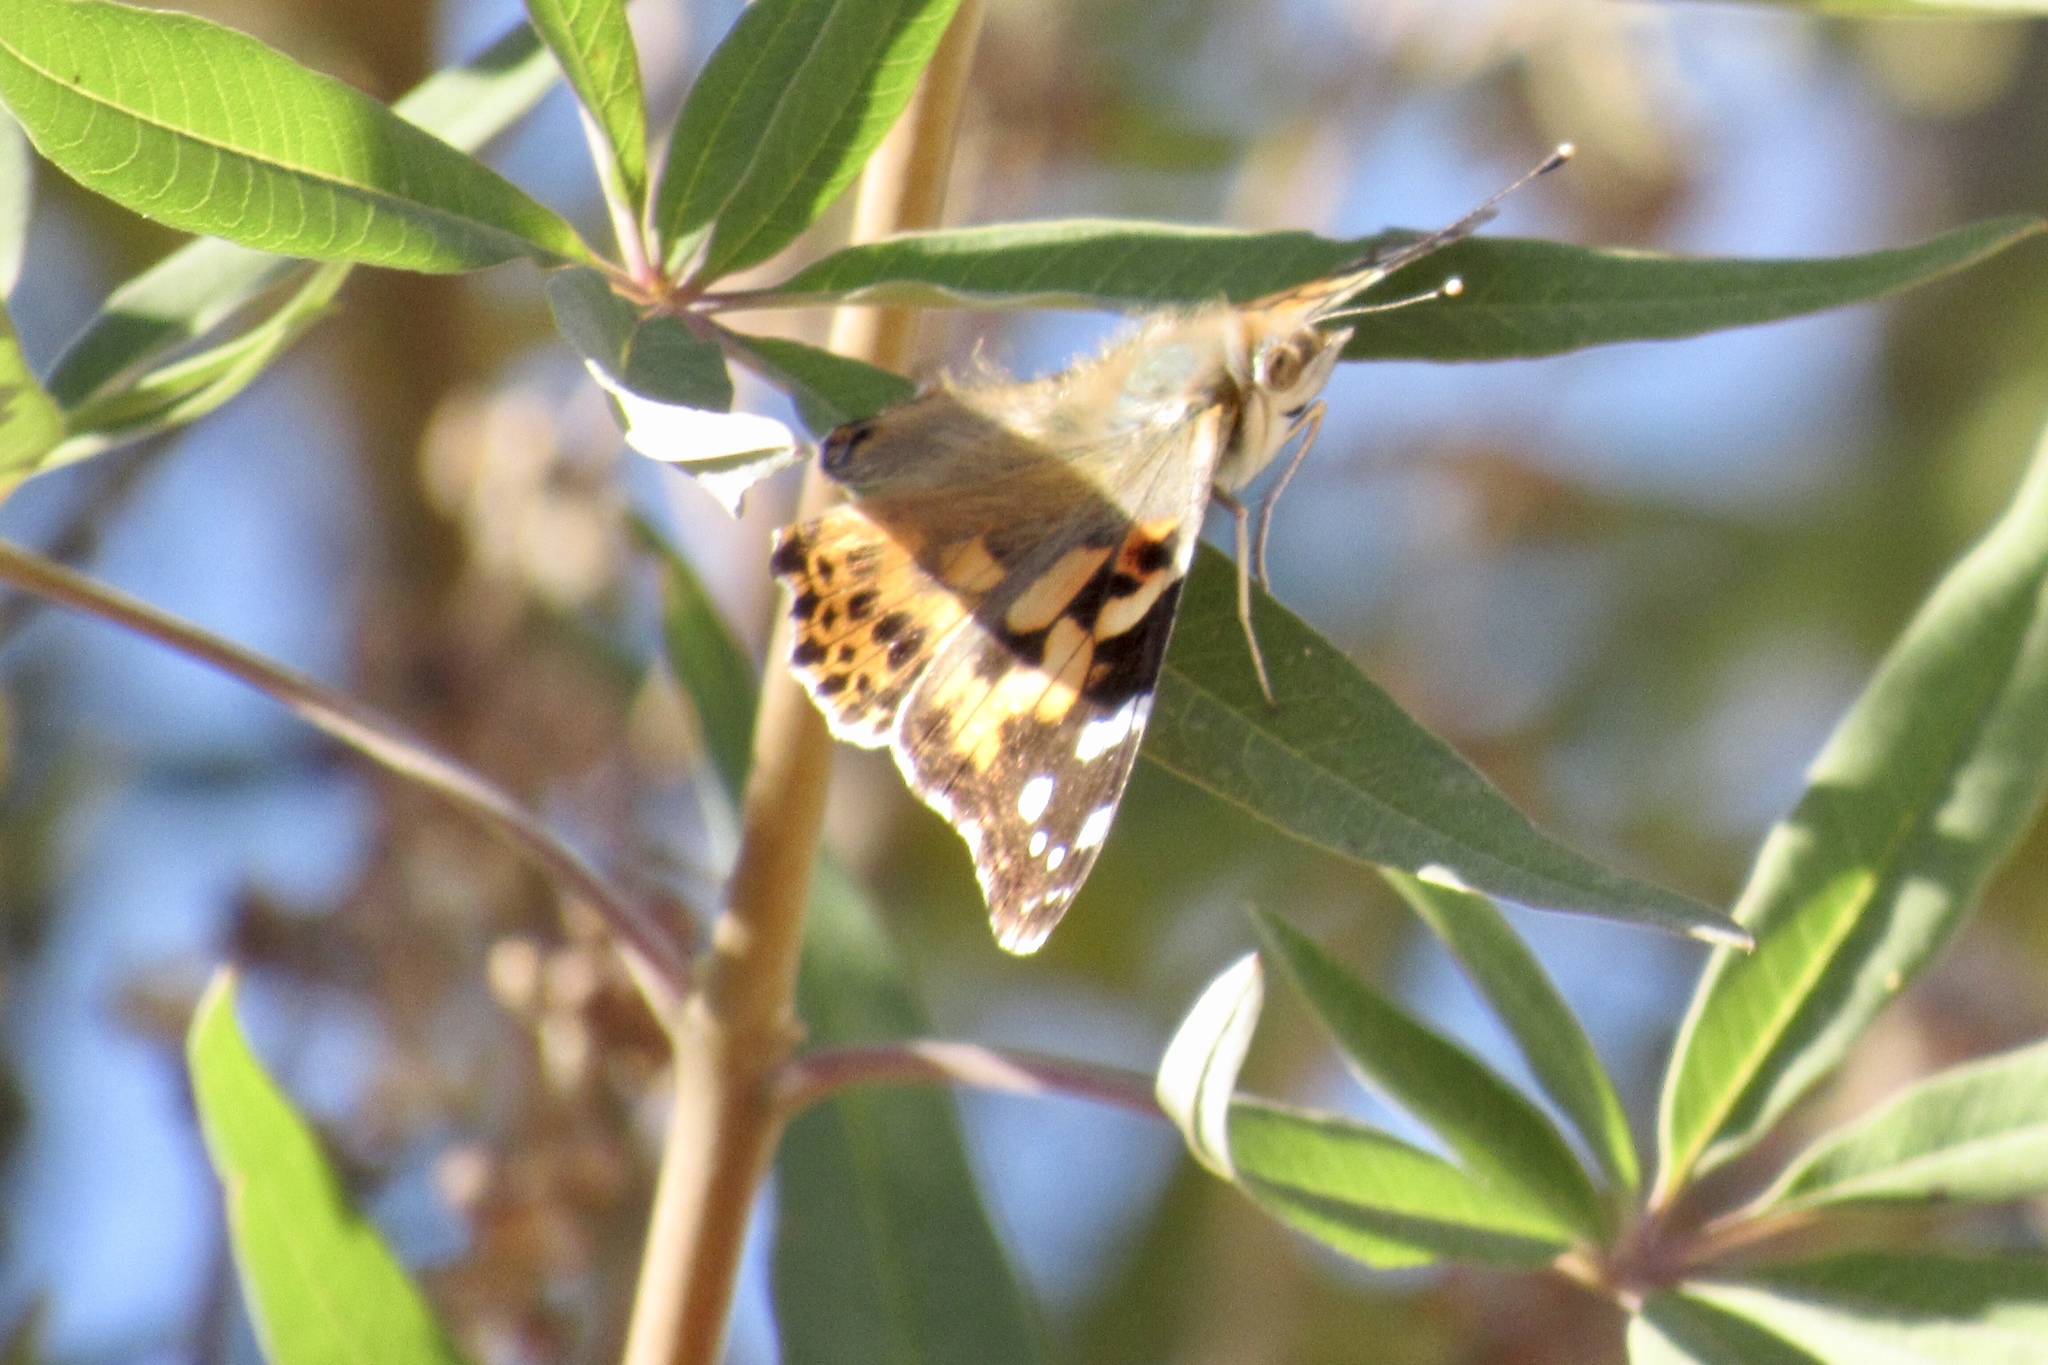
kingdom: Animalia
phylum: Arthropoda
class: Insecta
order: Lepidoptera
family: Nymphalidae
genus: Vanessa
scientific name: Vanessa cardui
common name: Painted lady
